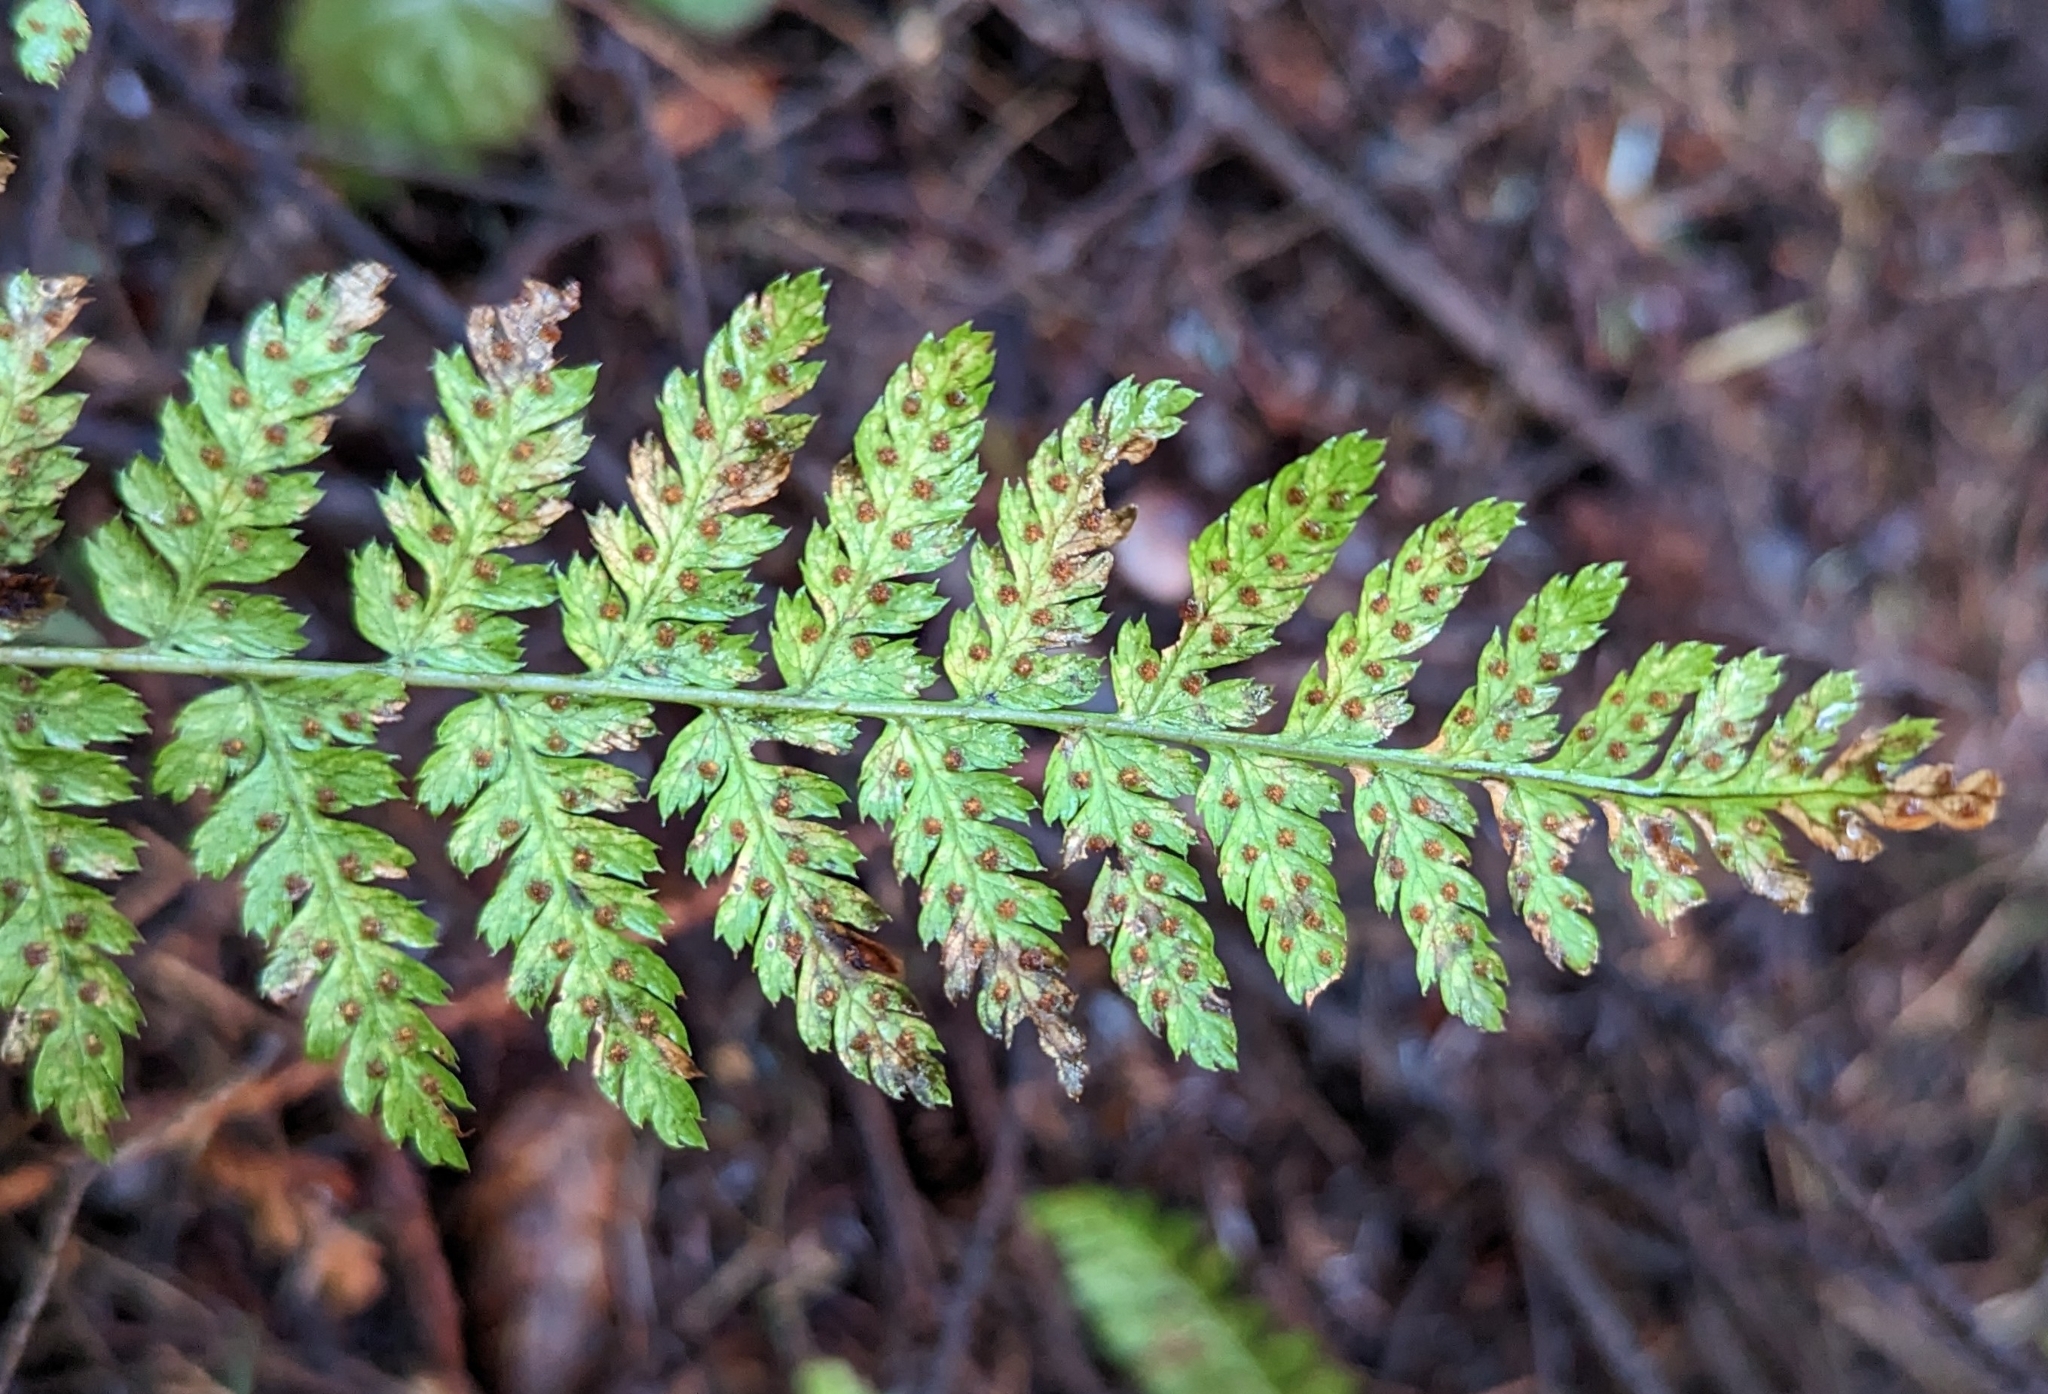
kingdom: Plantae
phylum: Tracheophyta
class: Polypodiopsida
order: Polypodiales
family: Dryopteridaceae
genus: Dryopteris
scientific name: Dryopteris expansa
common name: Northern buckler fern
